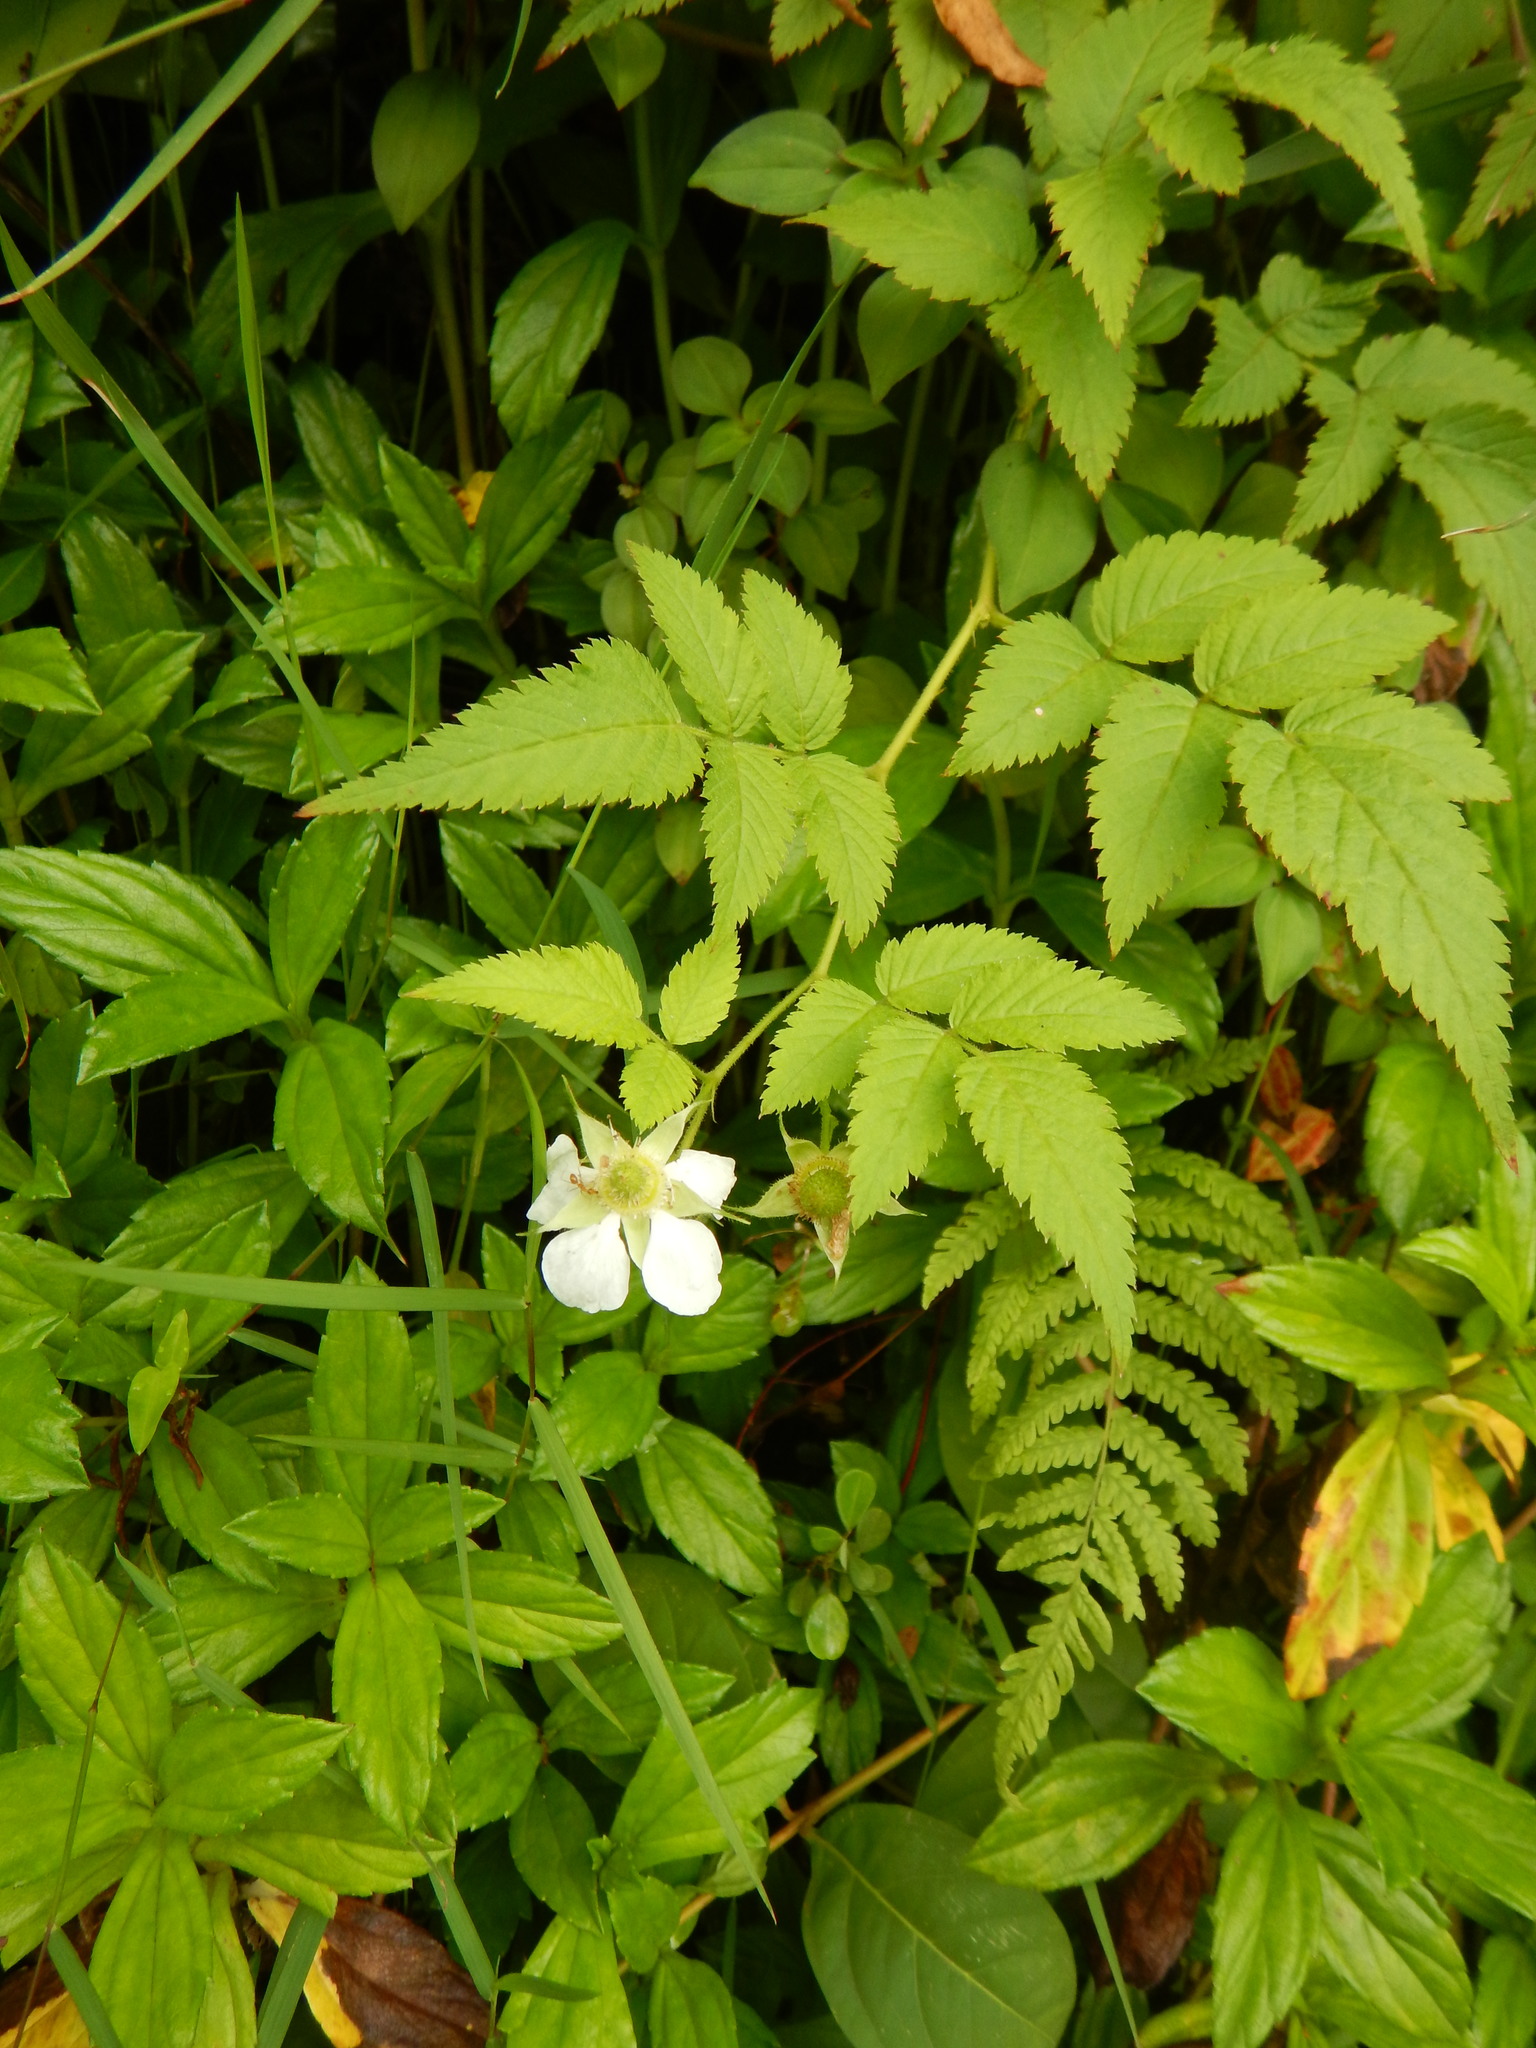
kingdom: Plantae
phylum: Tracheophyta
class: Magnoliopsida
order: Rosales
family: Rosaceae
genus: Rubus
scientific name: Rubus rosifolius
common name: Roseleaf raspberry
